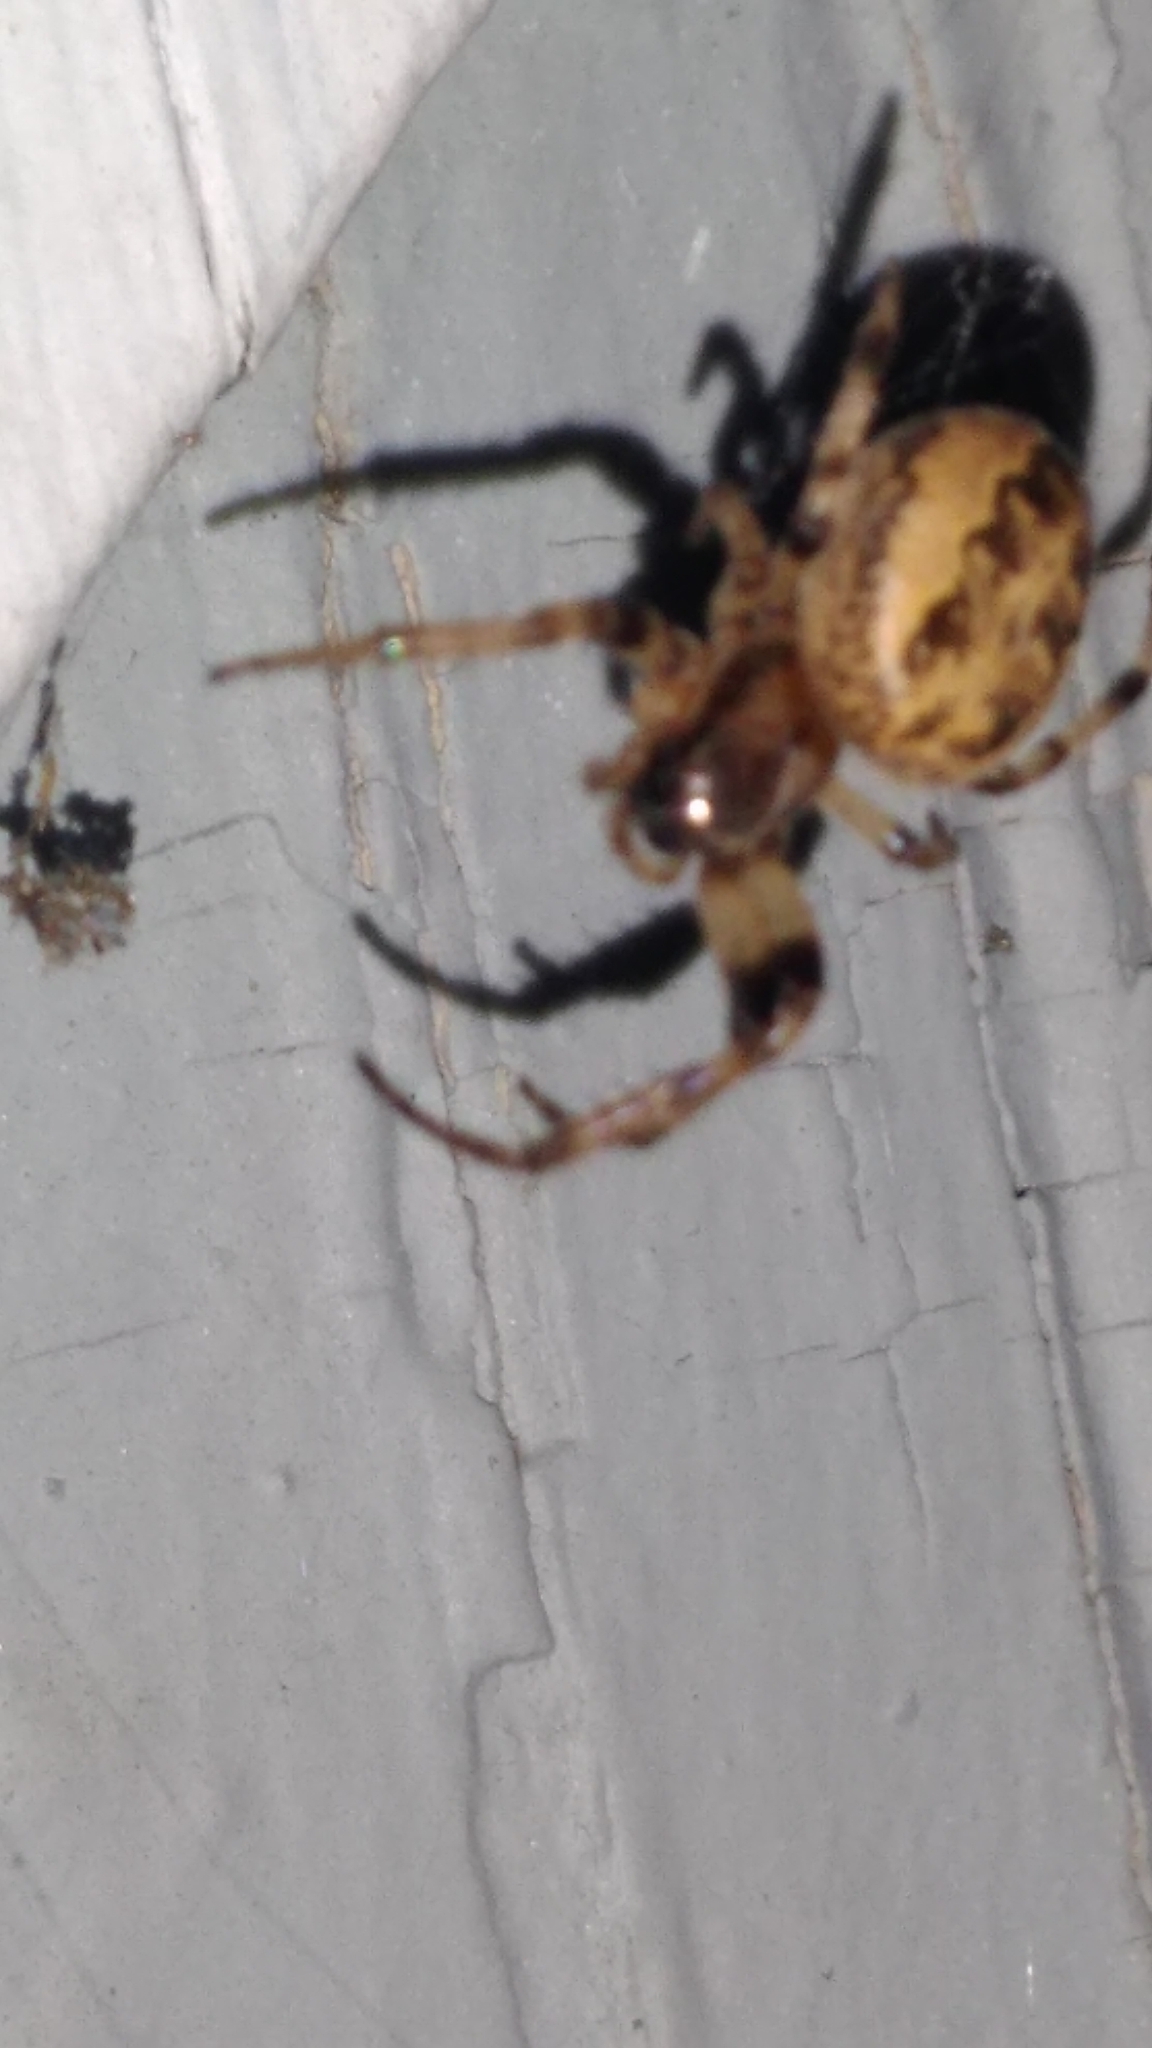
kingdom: Animalia
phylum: Arthropoda
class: Arachnida
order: Araneae
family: Araneidae
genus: Larinioides
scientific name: Larinioides cornutus
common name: Furrow orbweaver
